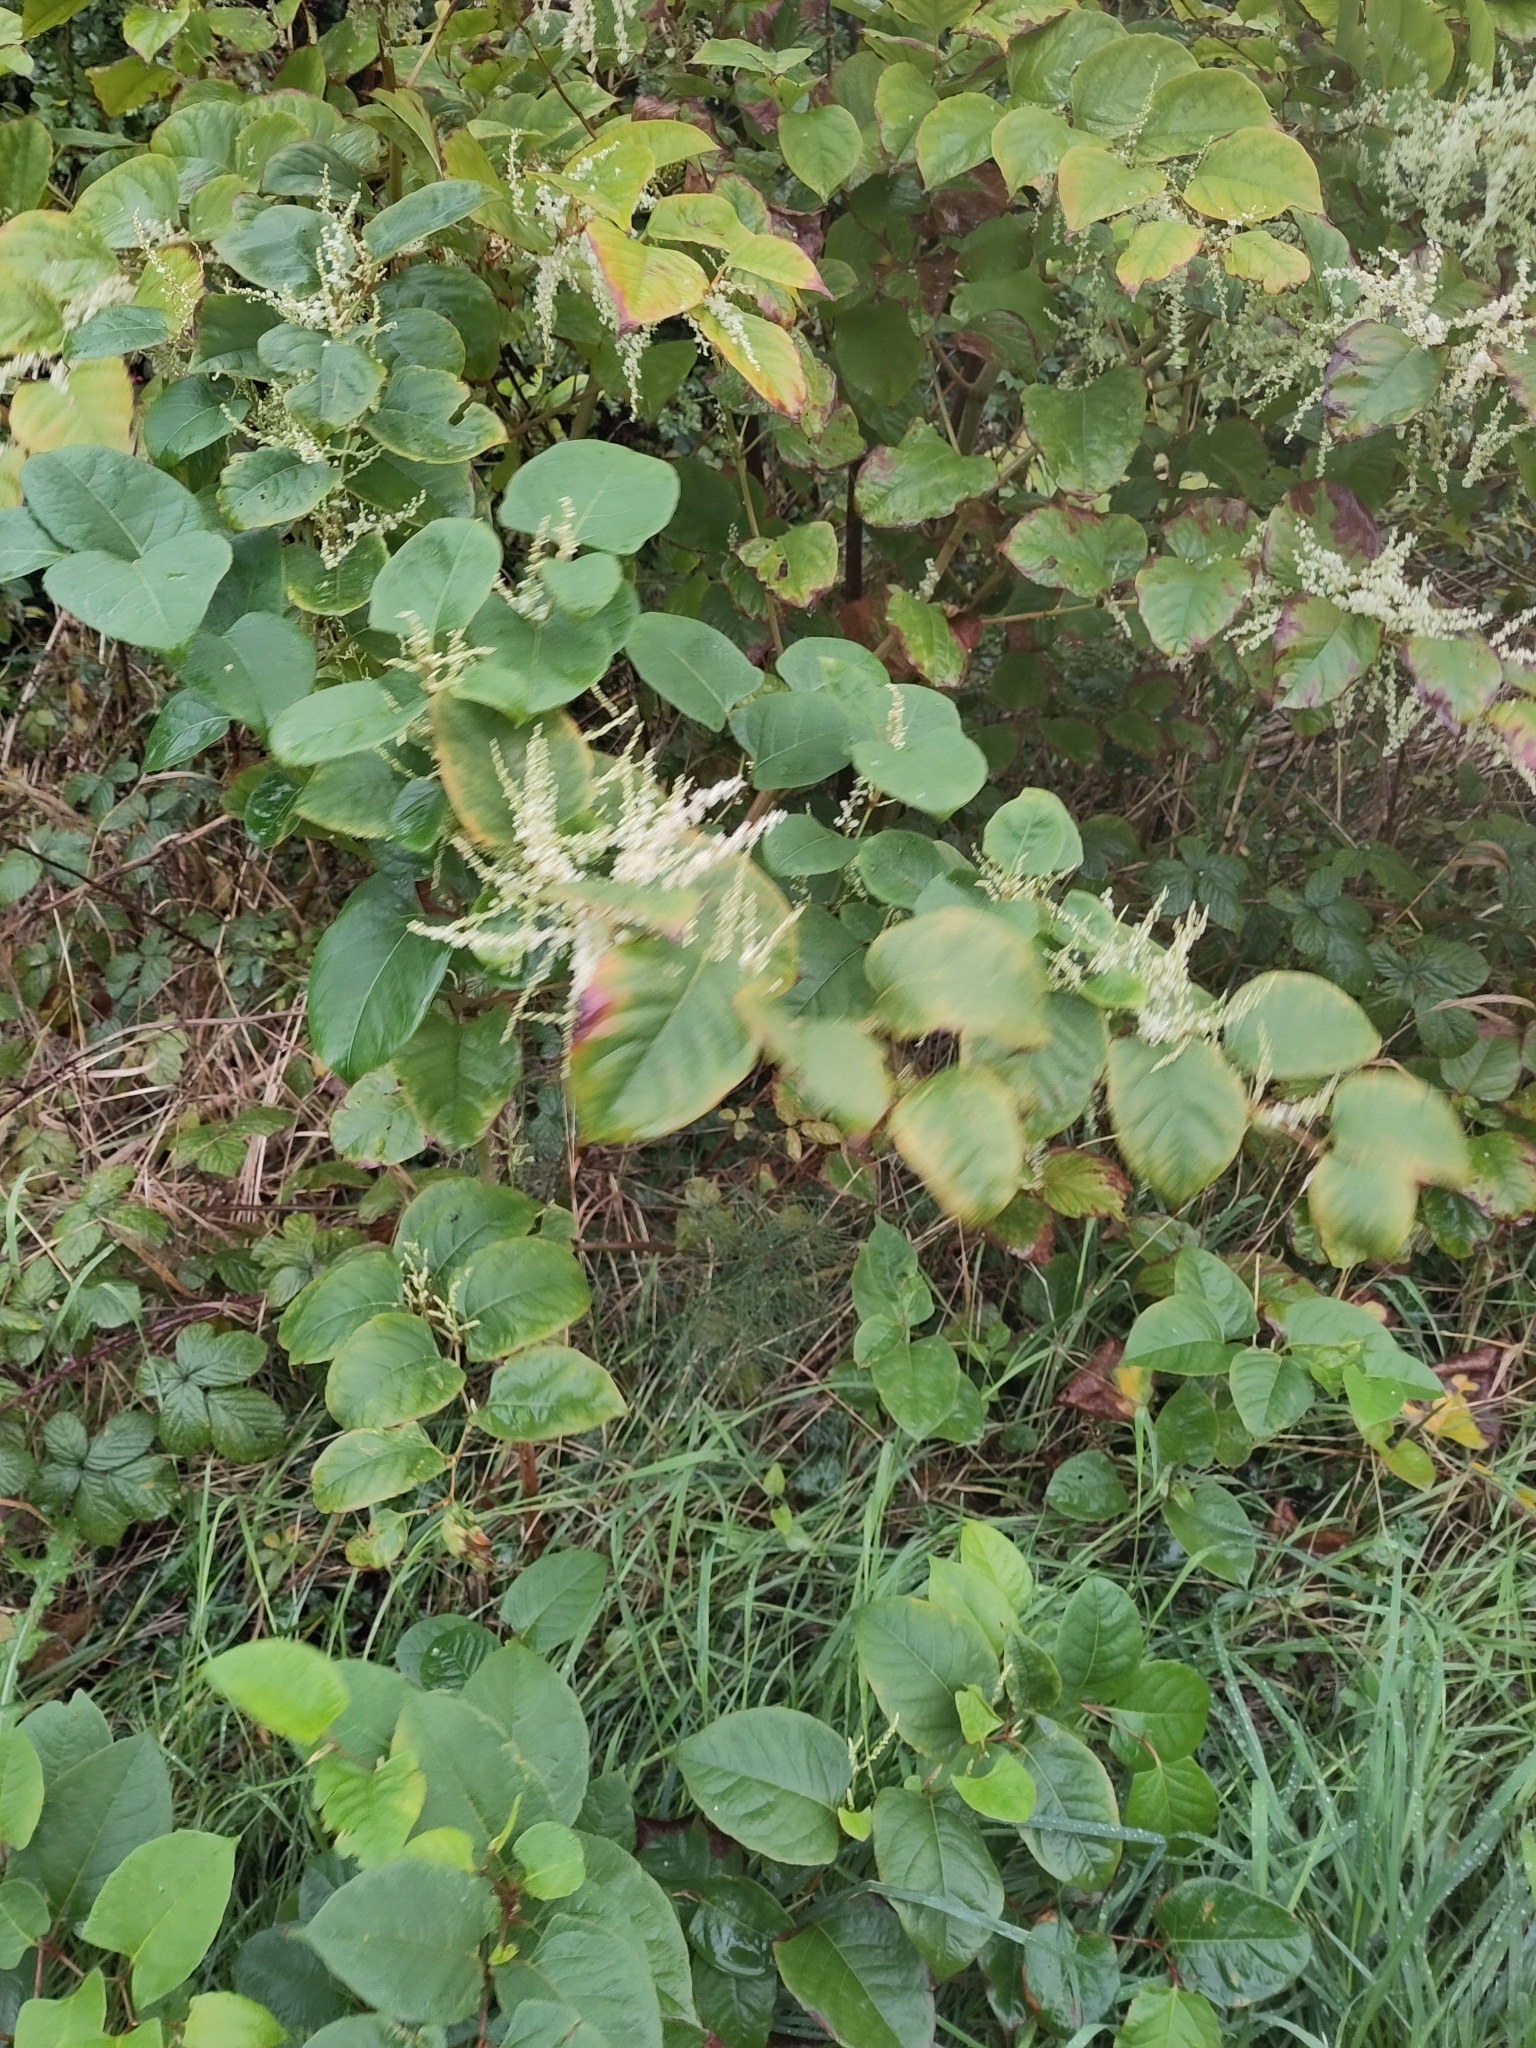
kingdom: Plantae
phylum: Tracheophyta
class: Magnoliopsida
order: Caryophyllales
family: Polygonaceae
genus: Reynoutria
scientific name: Reynoutria japonica
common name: Japanese knotweed
